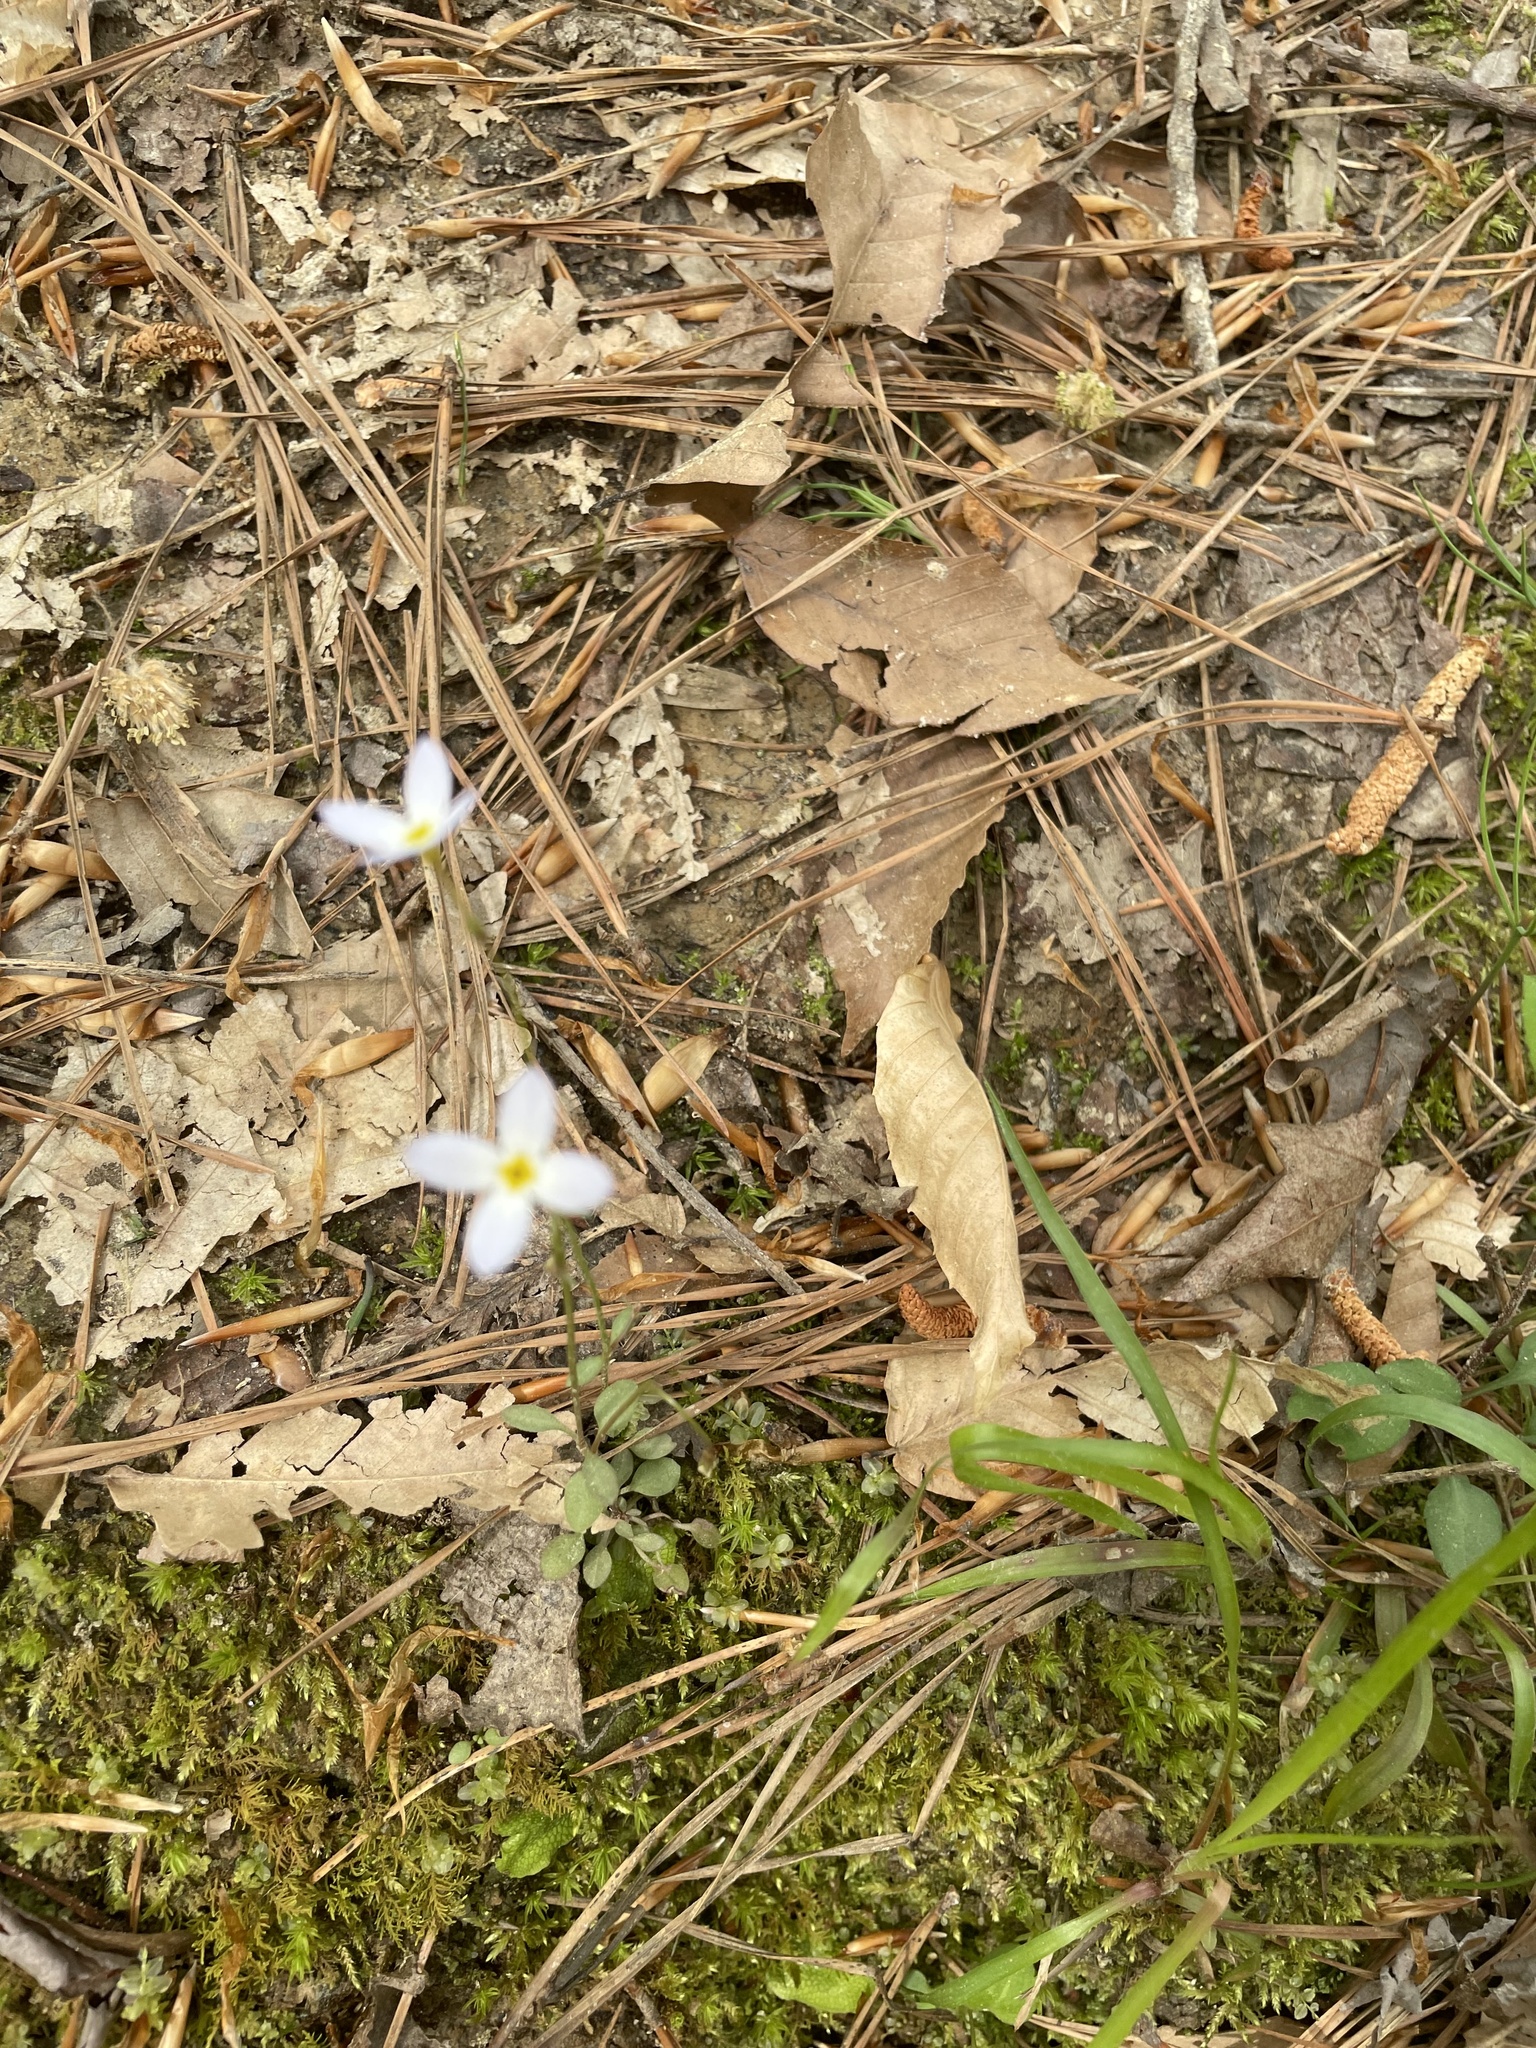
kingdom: Plantae
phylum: Tracheophyta
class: Magnoliopsida
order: Gentianales
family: Rubiaceae
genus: Houstonia
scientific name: Houstonia caerulea
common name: Bluets
